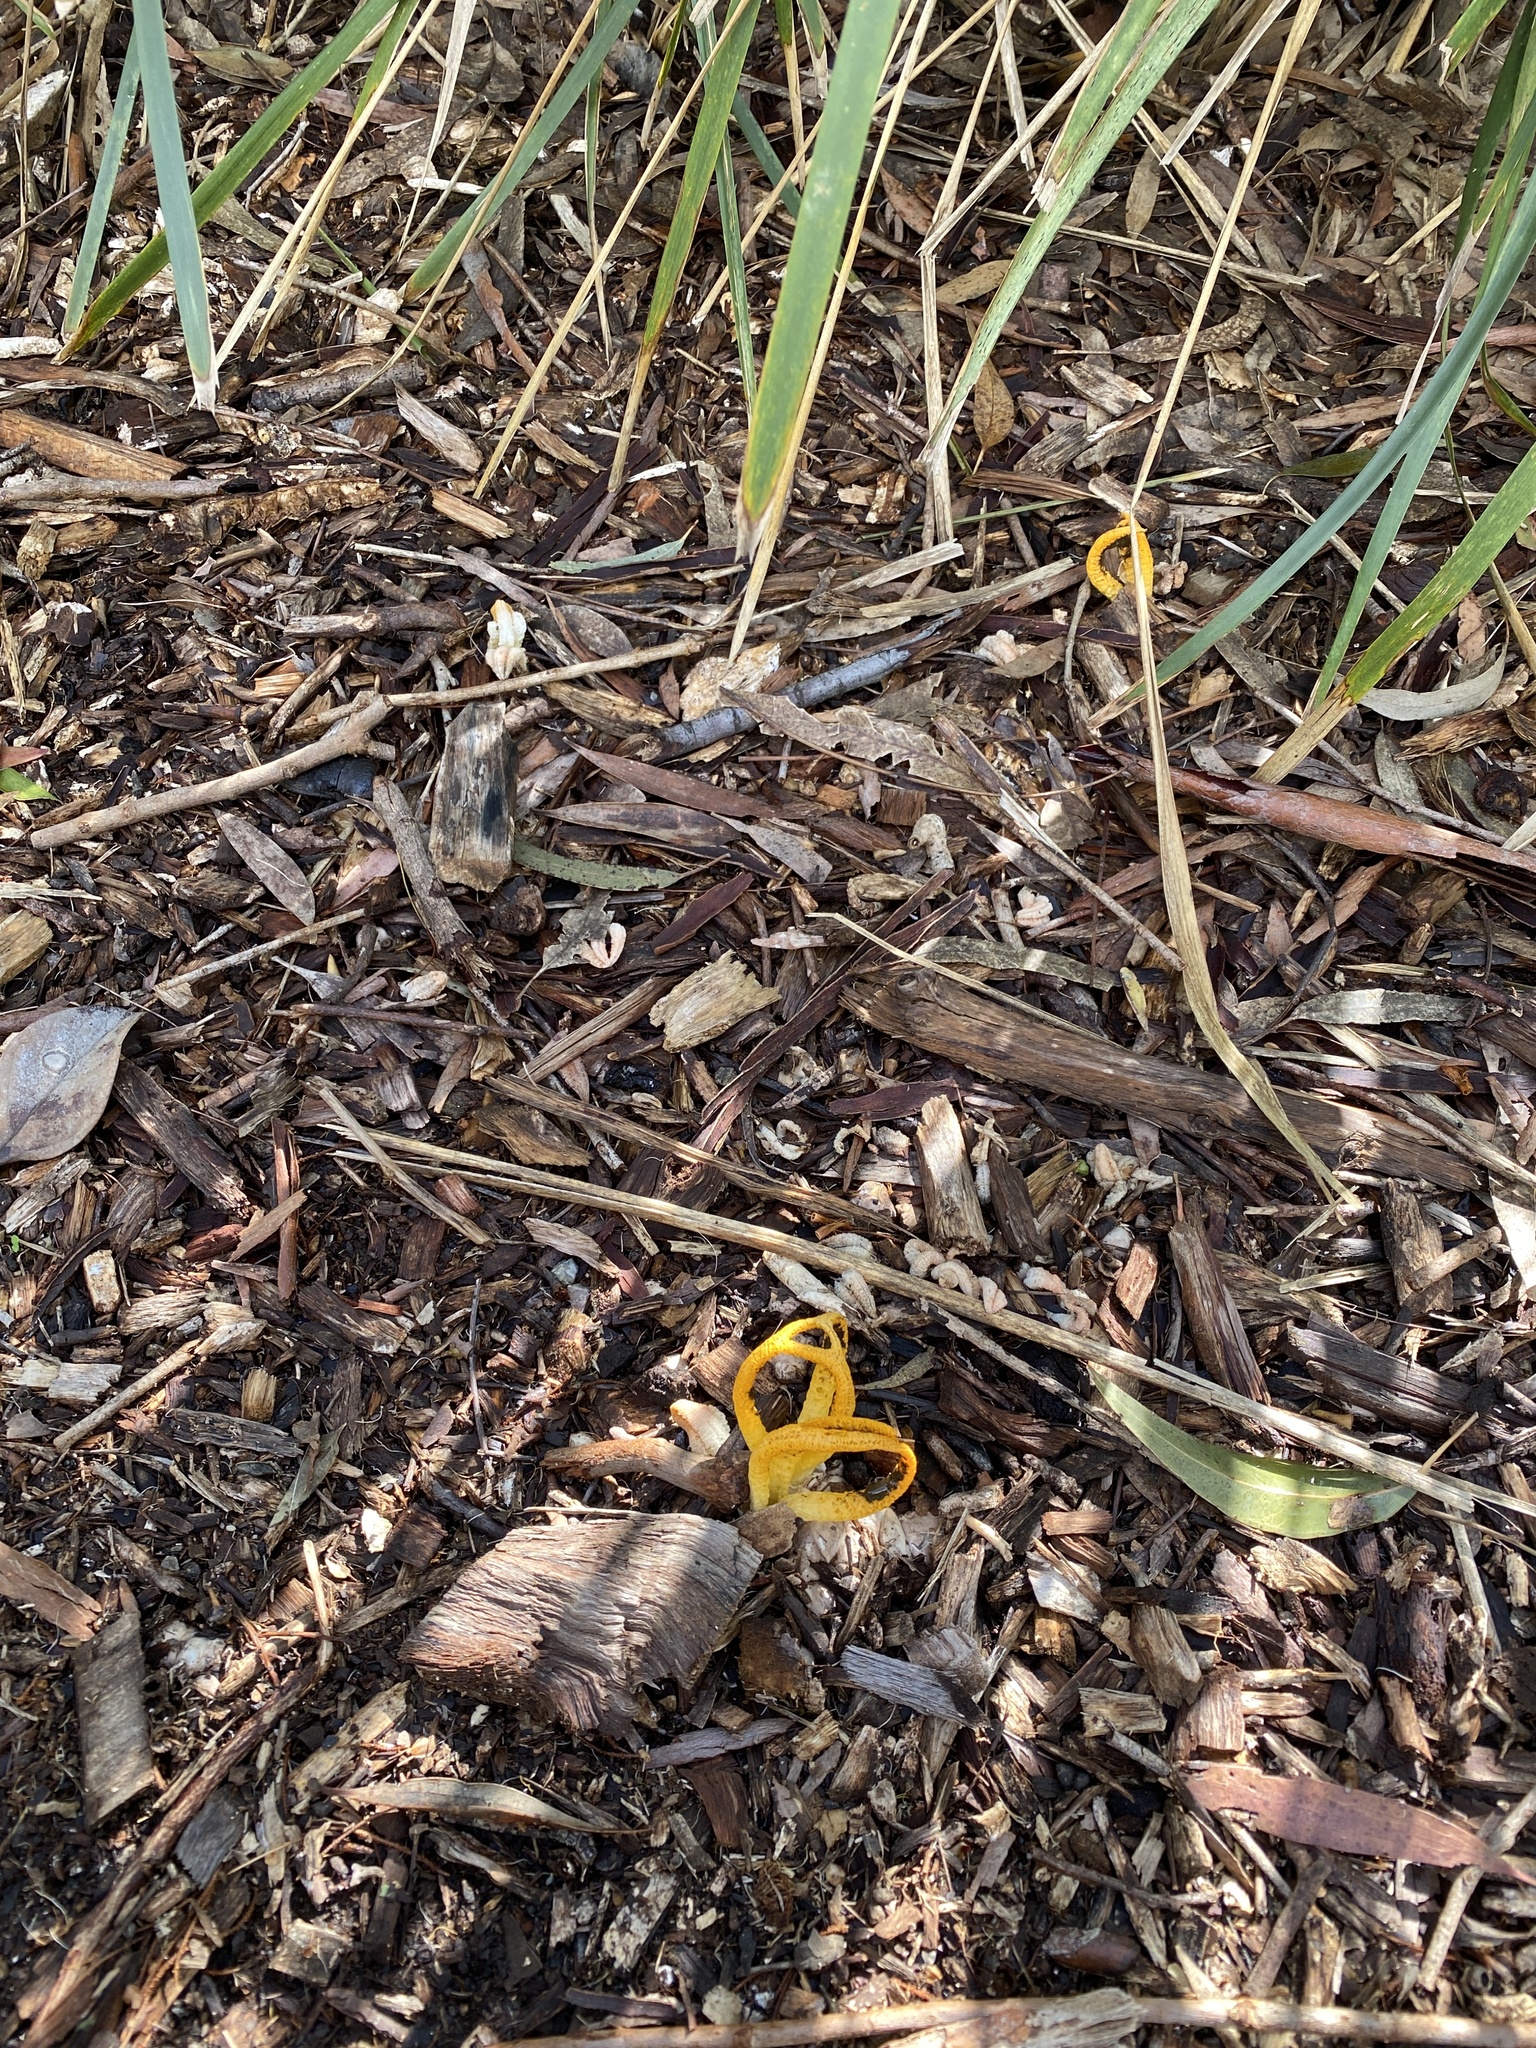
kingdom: Fungi
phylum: Basidiomycota
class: Agaricomycetes
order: Phallales
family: Phallaceae
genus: Pseudocolus
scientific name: Pseudocolus fusiformis
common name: Stinky squid
